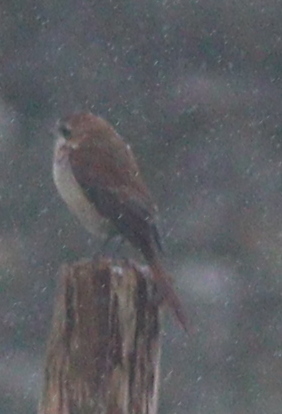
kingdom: Animalia
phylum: Chordata
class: Aves
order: Passeriformes
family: Laniidae
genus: Lanius
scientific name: Lanius cristatus
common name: Brown shrike
